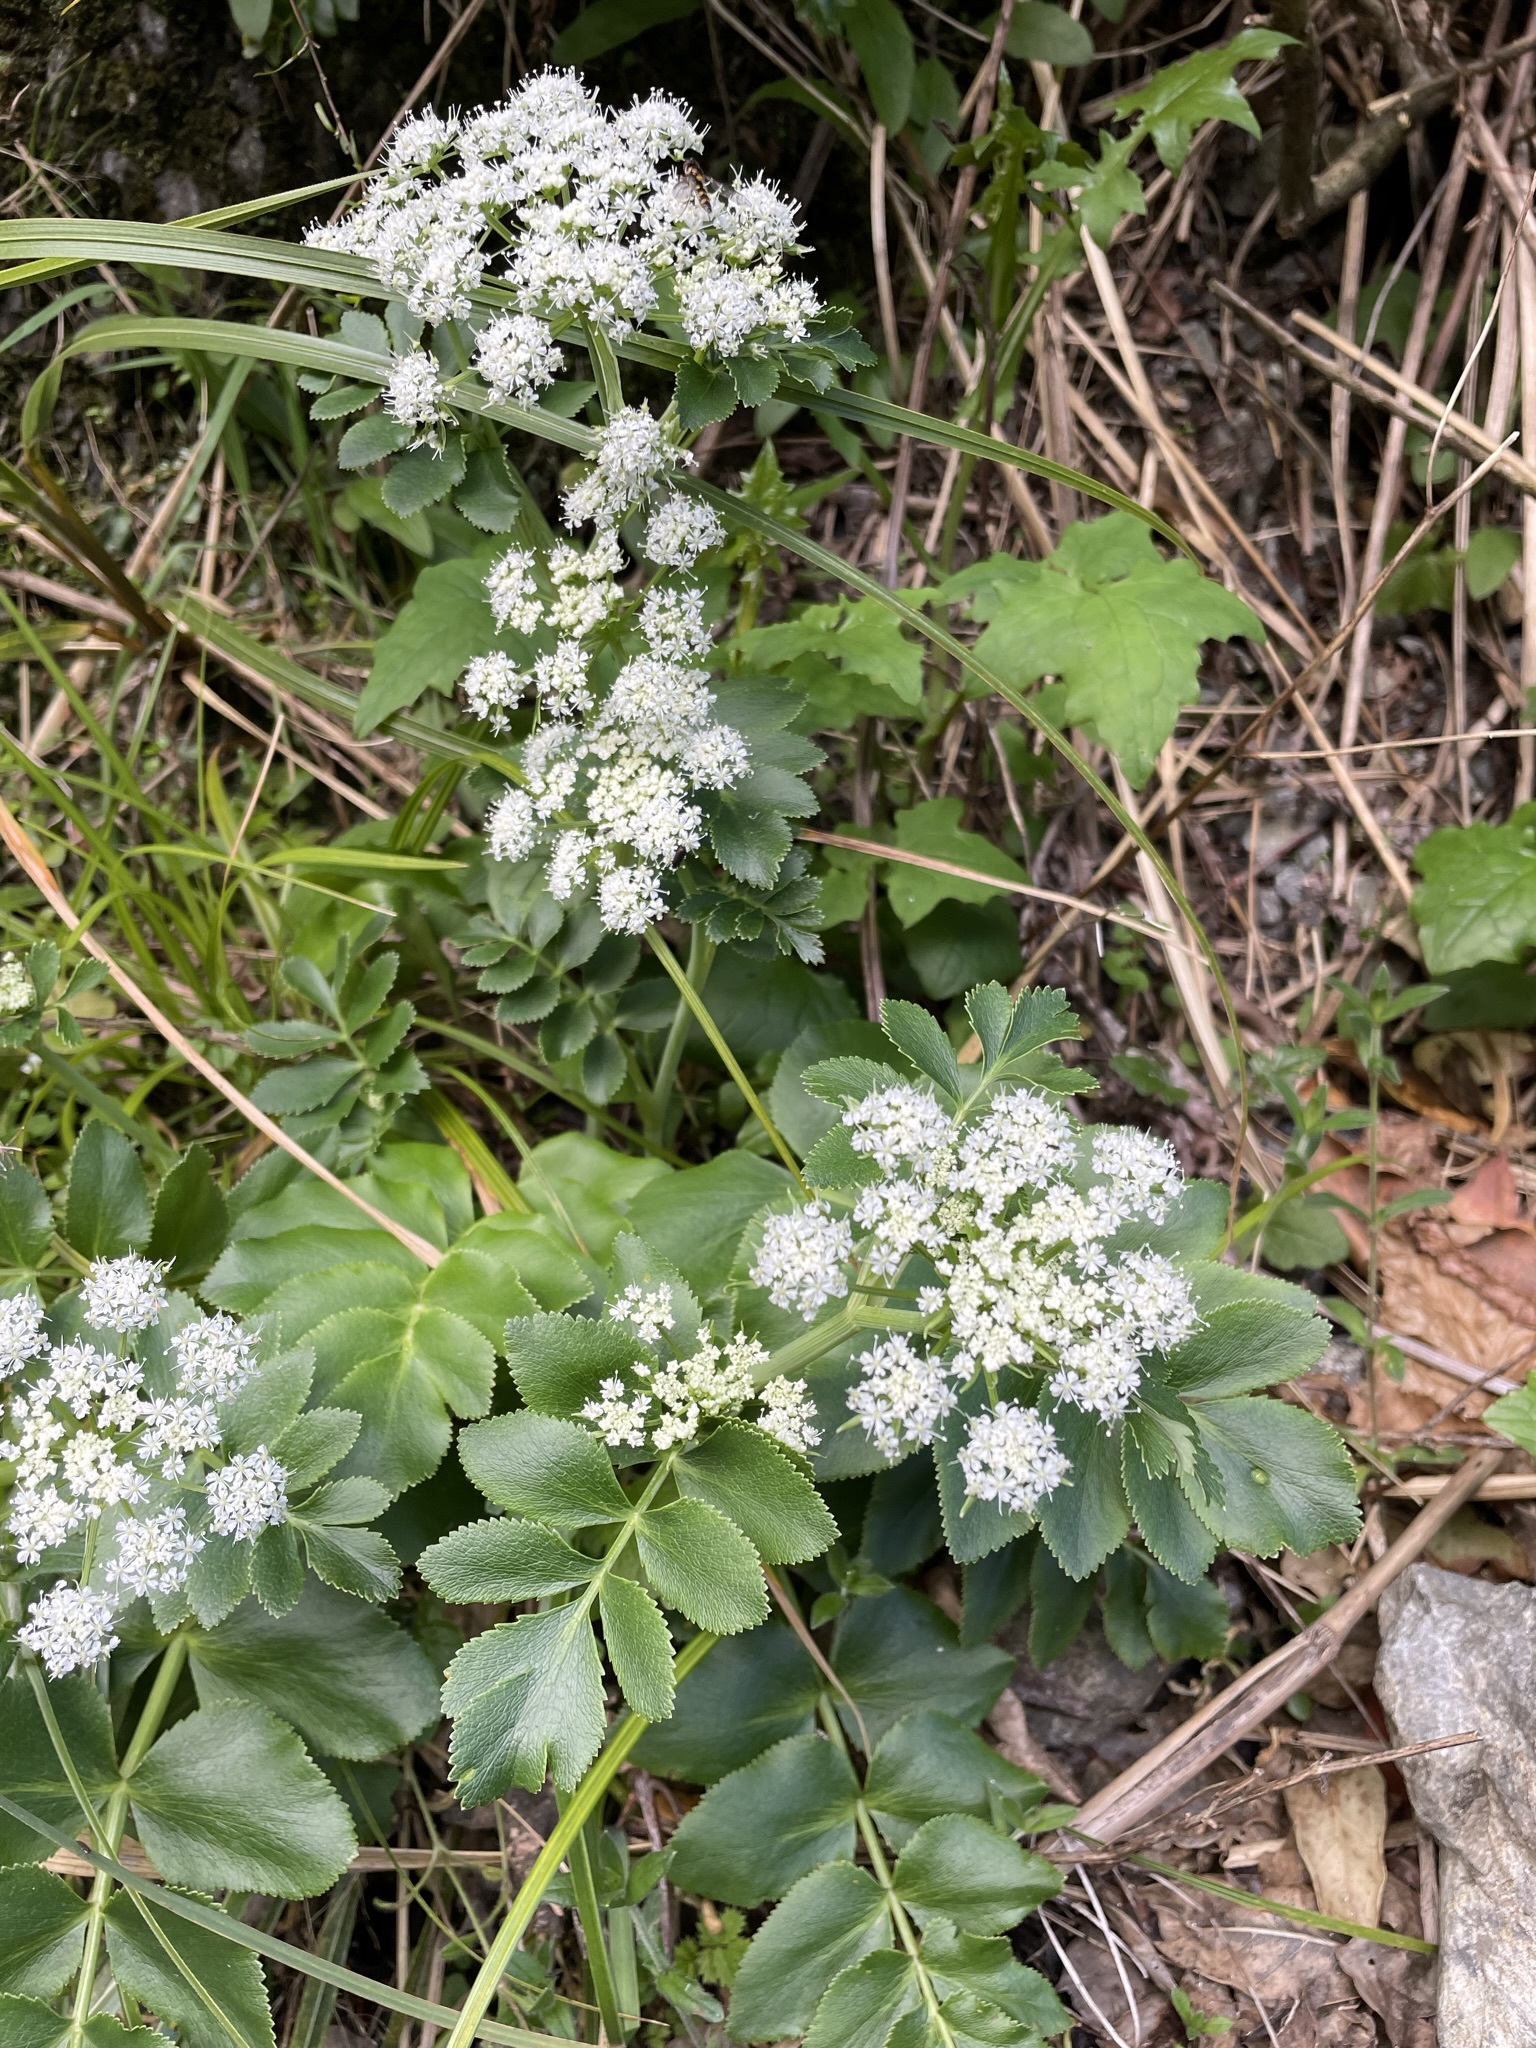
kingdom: Plantae
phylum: Tracheophyta
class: Magnoliopsida
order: Apiales
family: Apiaceae
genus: Gingidia
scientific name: Gingidia montana
